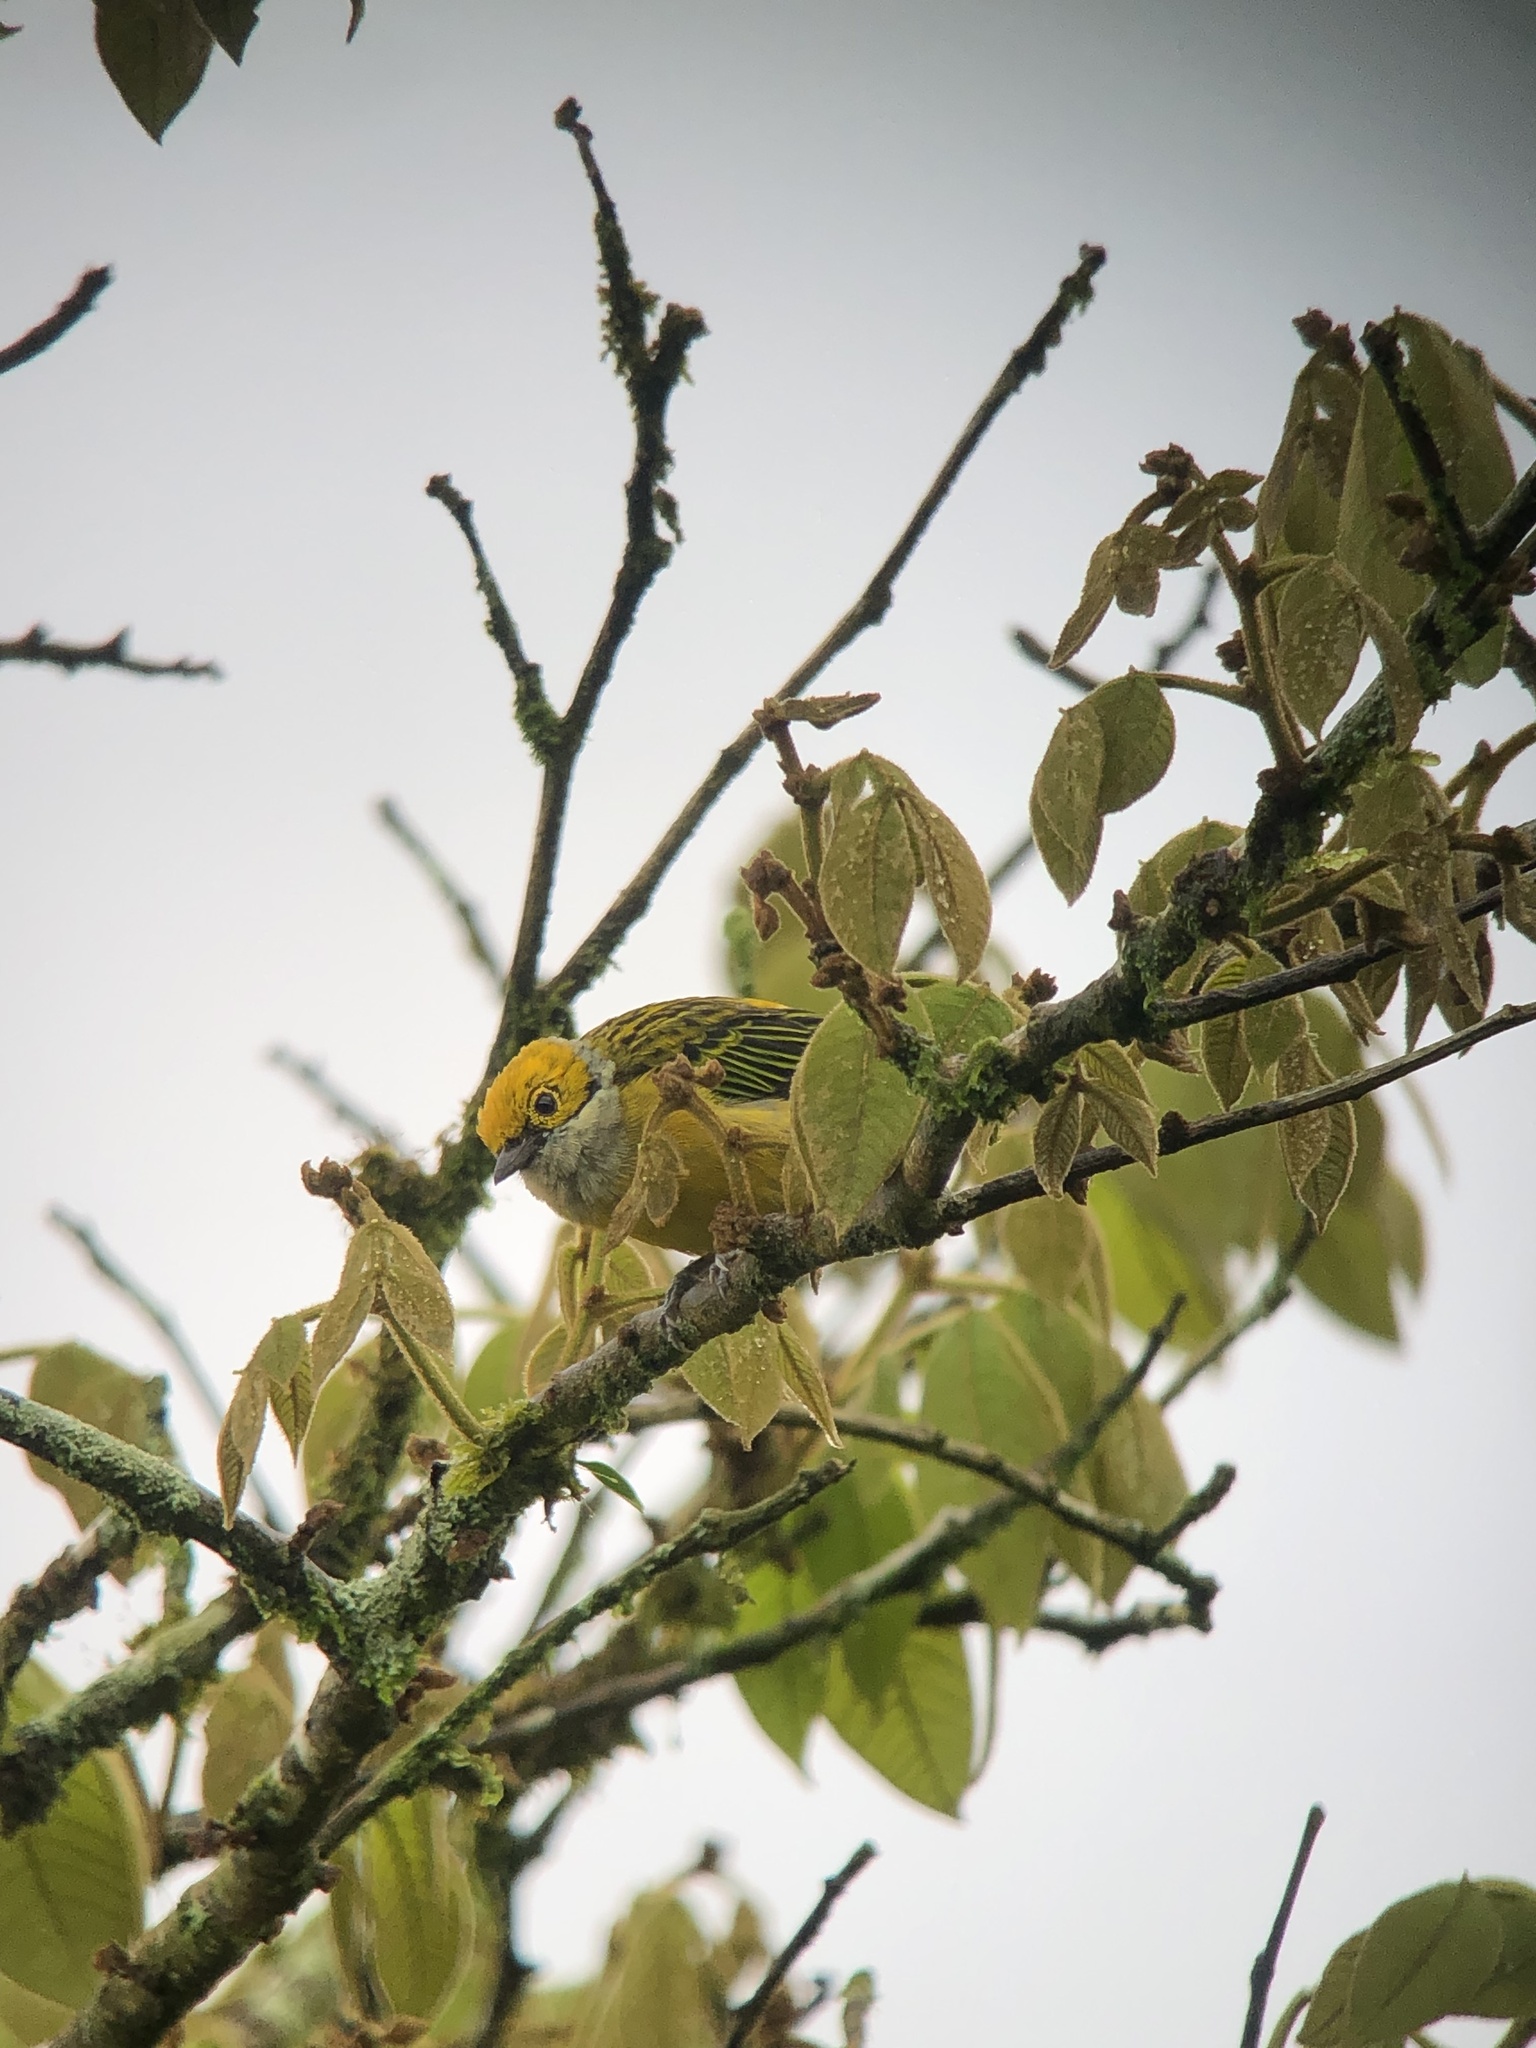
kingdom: Animalia
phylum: Chordata
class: Aves
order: Passeriformes
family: Thraupidae
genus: Tangara
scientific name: Tangara icterocephala
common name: Silver-throated tanager
